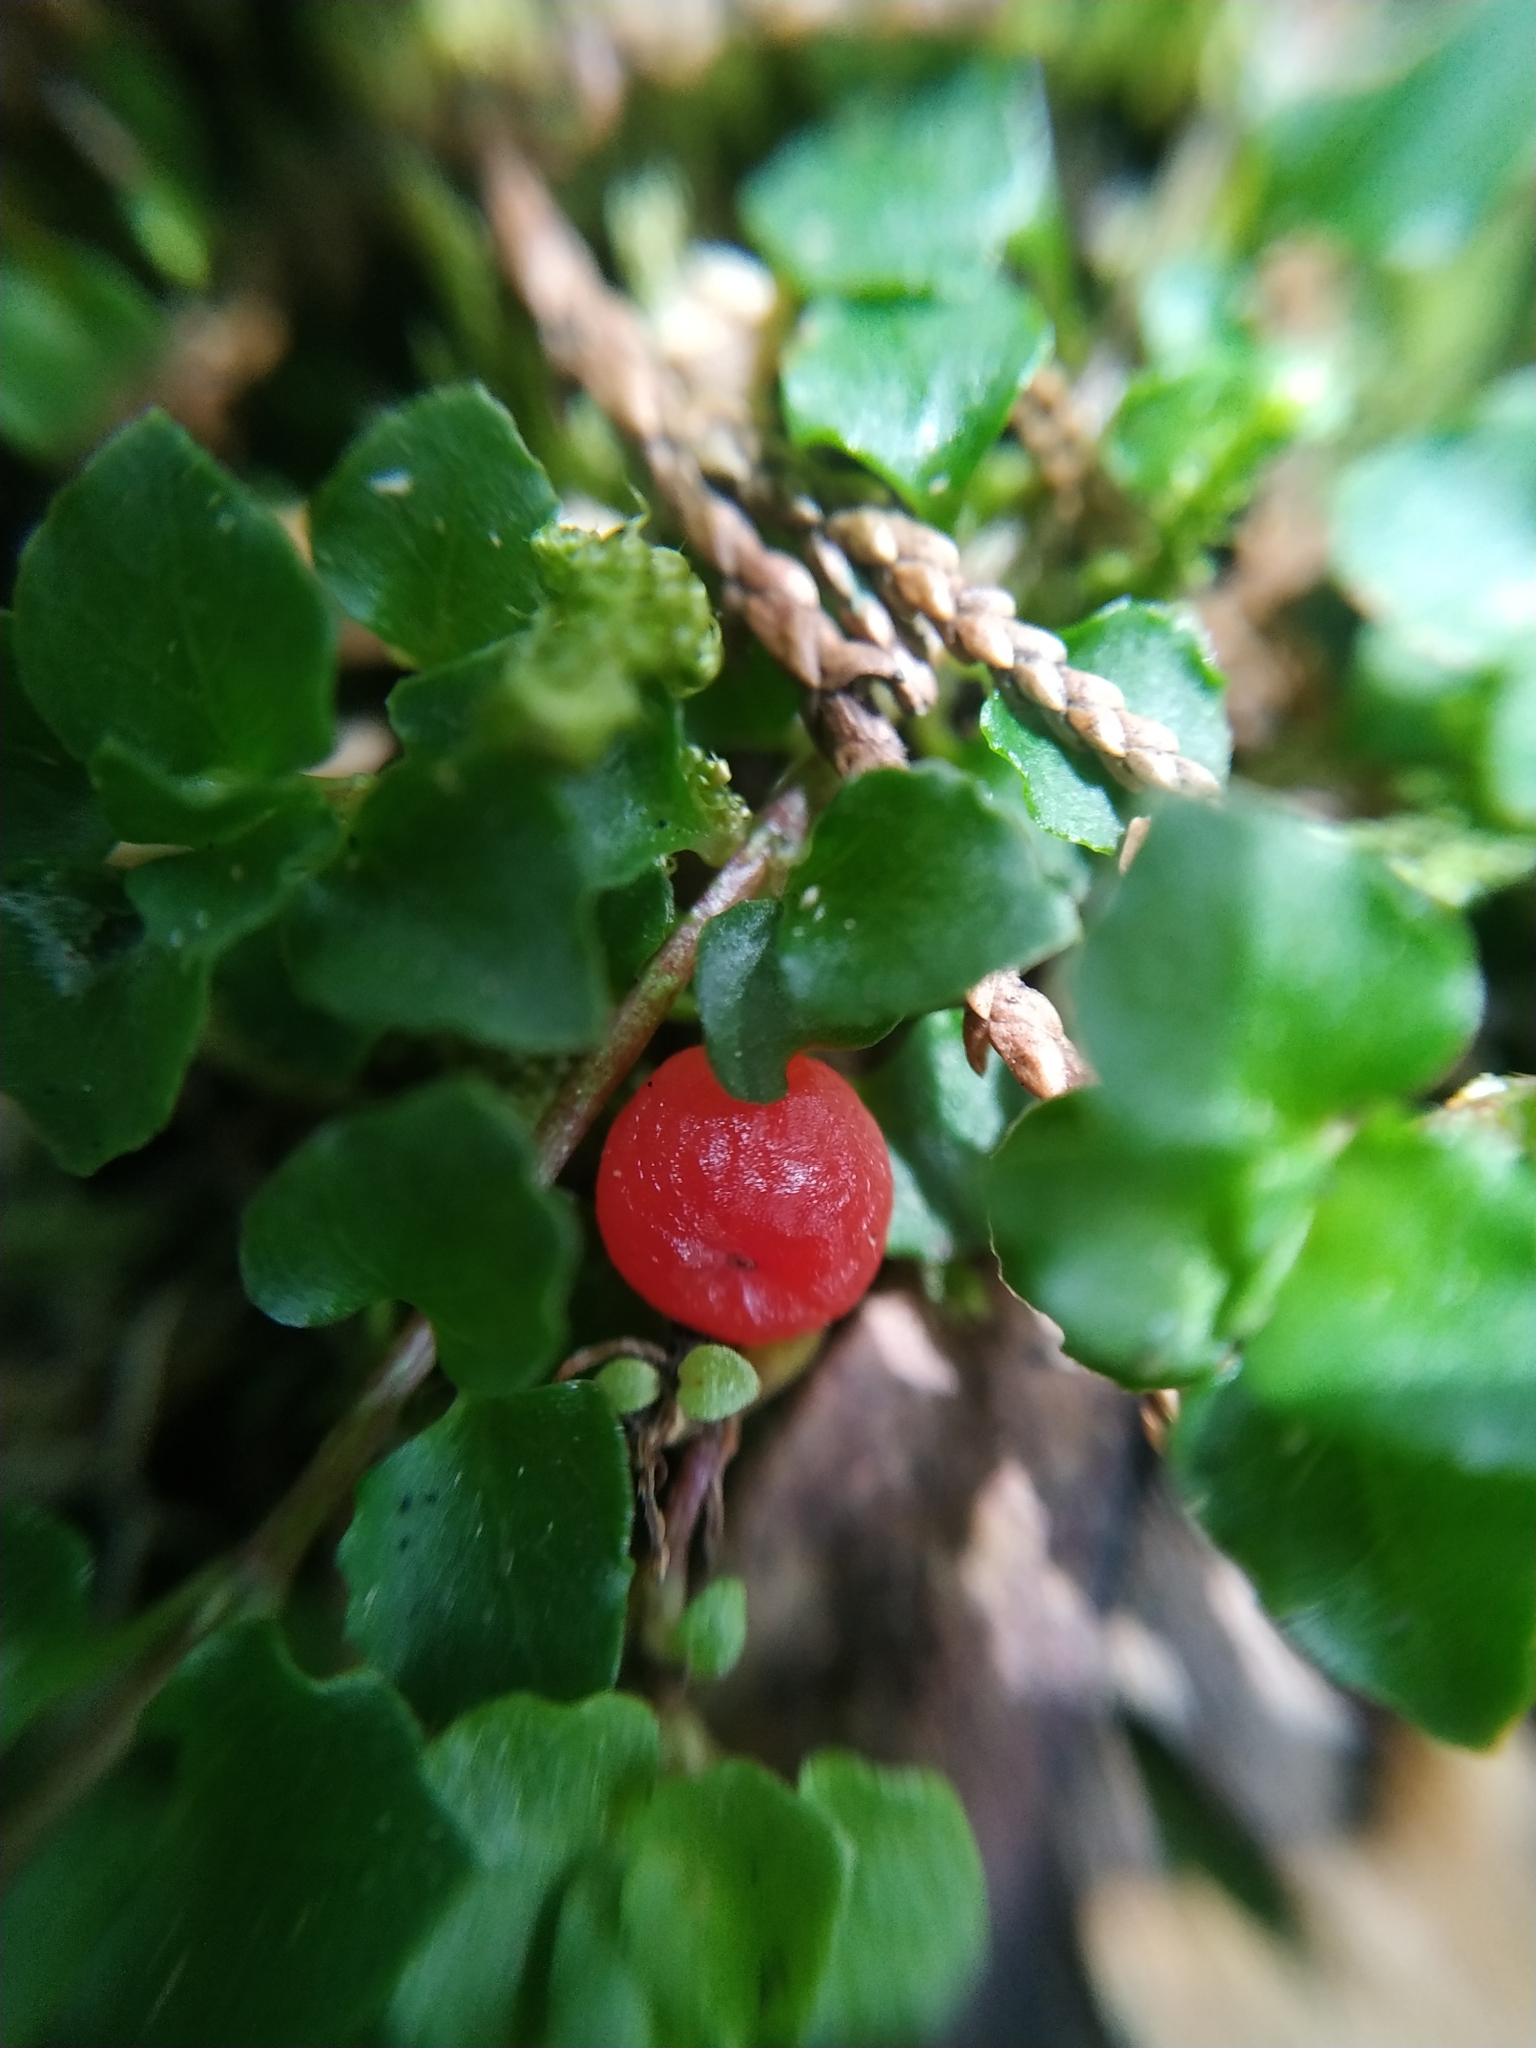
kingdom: Plantae
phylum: Tracheophyta
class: Magnoliopsida
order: Gentianales
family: Rubiaceae
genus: Nertera
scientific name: Nertera granadensis
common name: Beadplant
